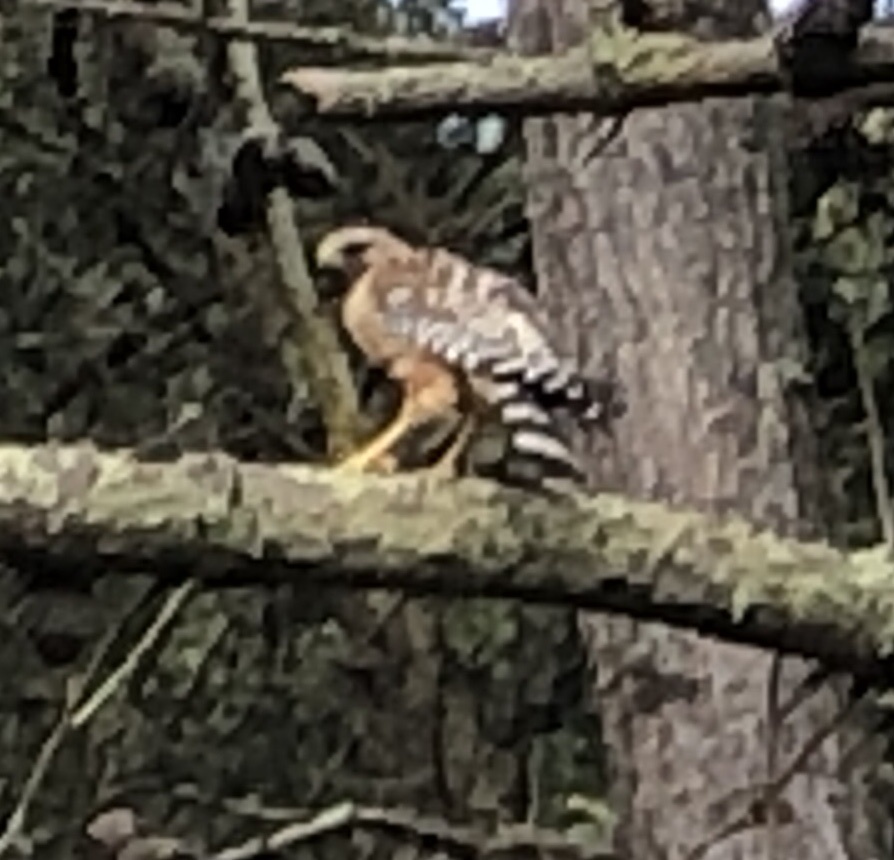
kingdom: Animalia
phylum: Chordata
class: Aves
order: Accipitriformes
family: Accipitridae
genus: Buteo
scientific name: Buteo lineatus
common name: Red-shouldered hawk
